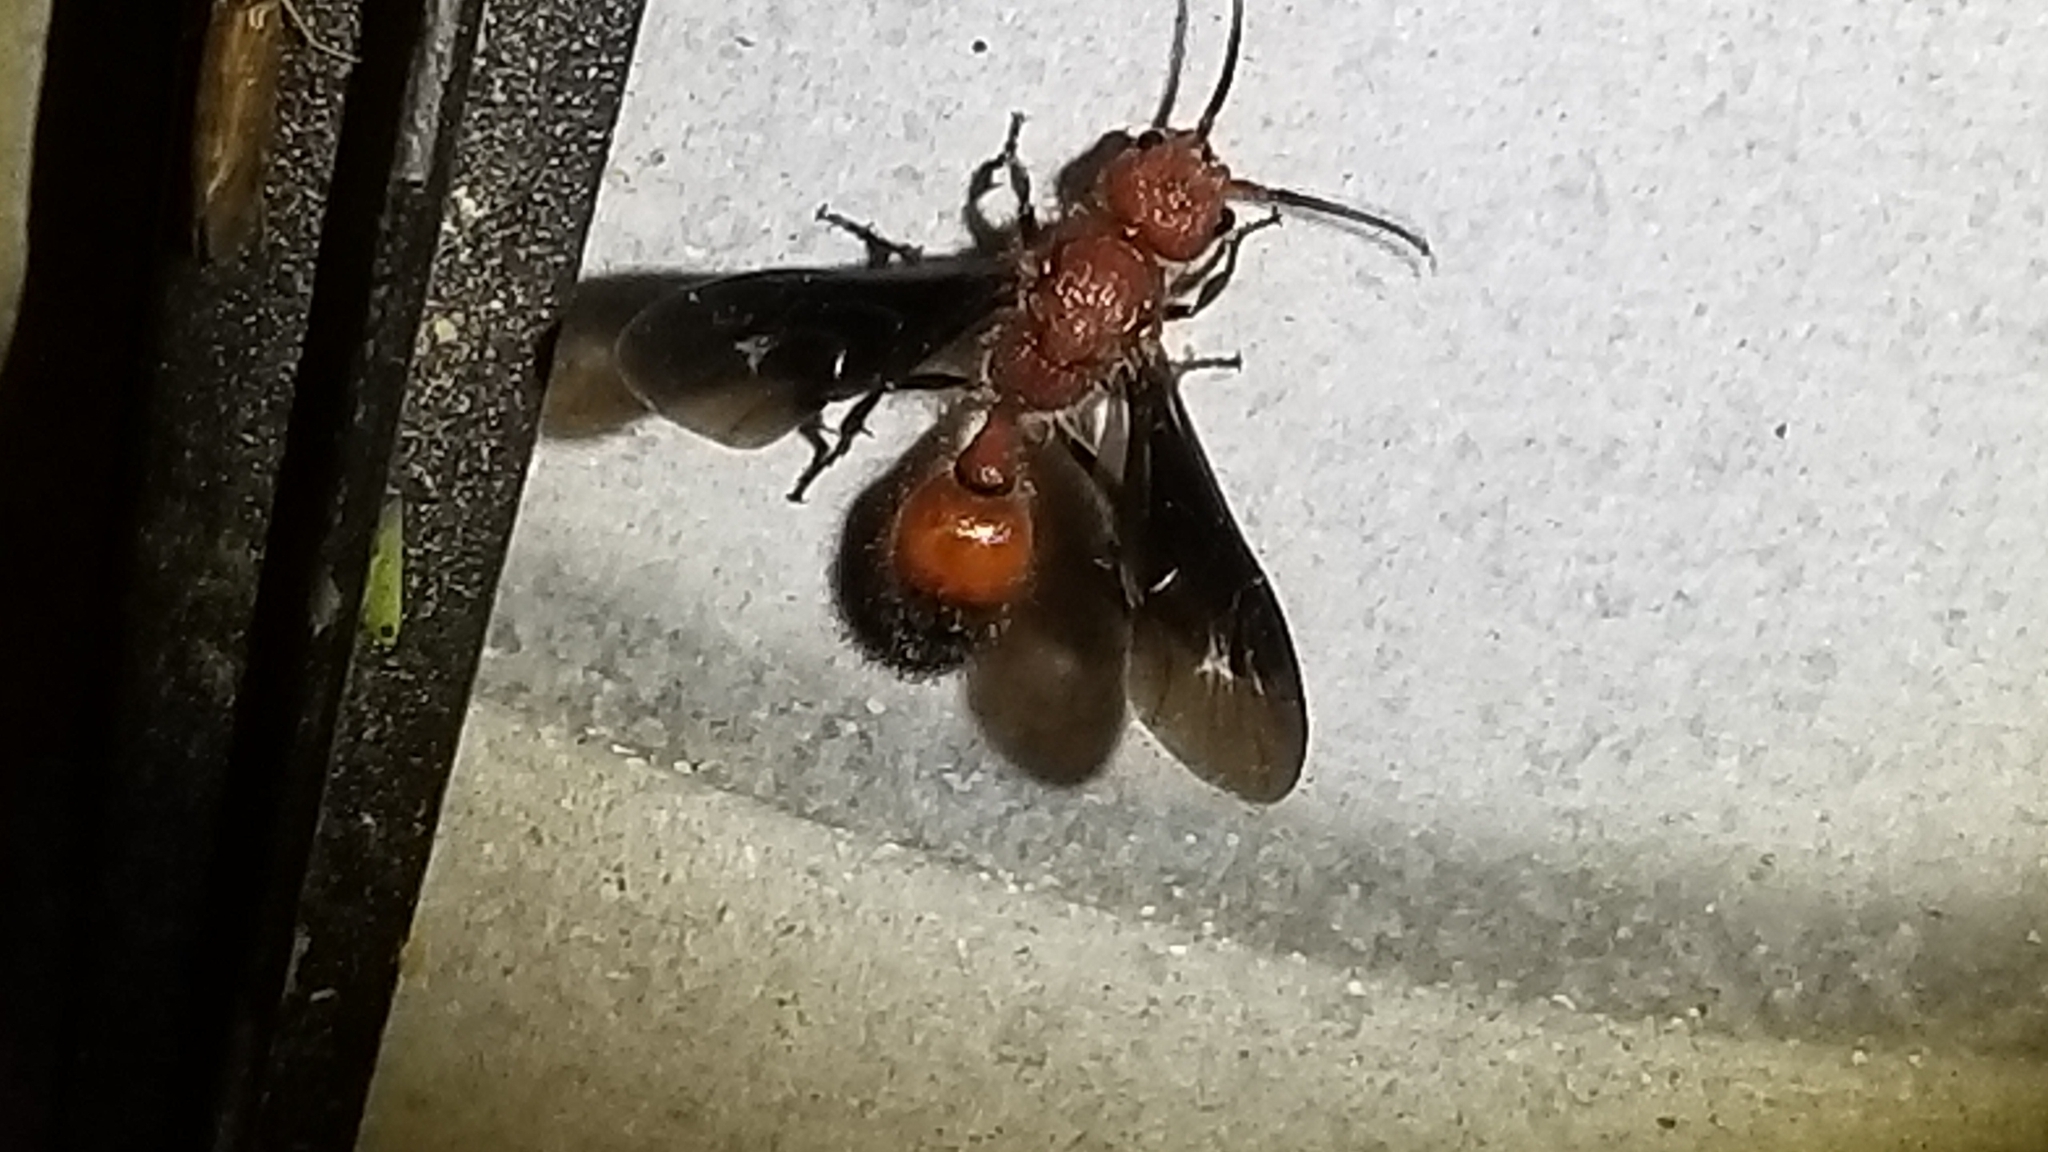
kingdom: Animalia
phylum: Arthropoda
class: Insecta
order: Hymenoptera
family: Mutillidae
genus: Sphaeropthalma
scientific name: Sphaeropthalma
